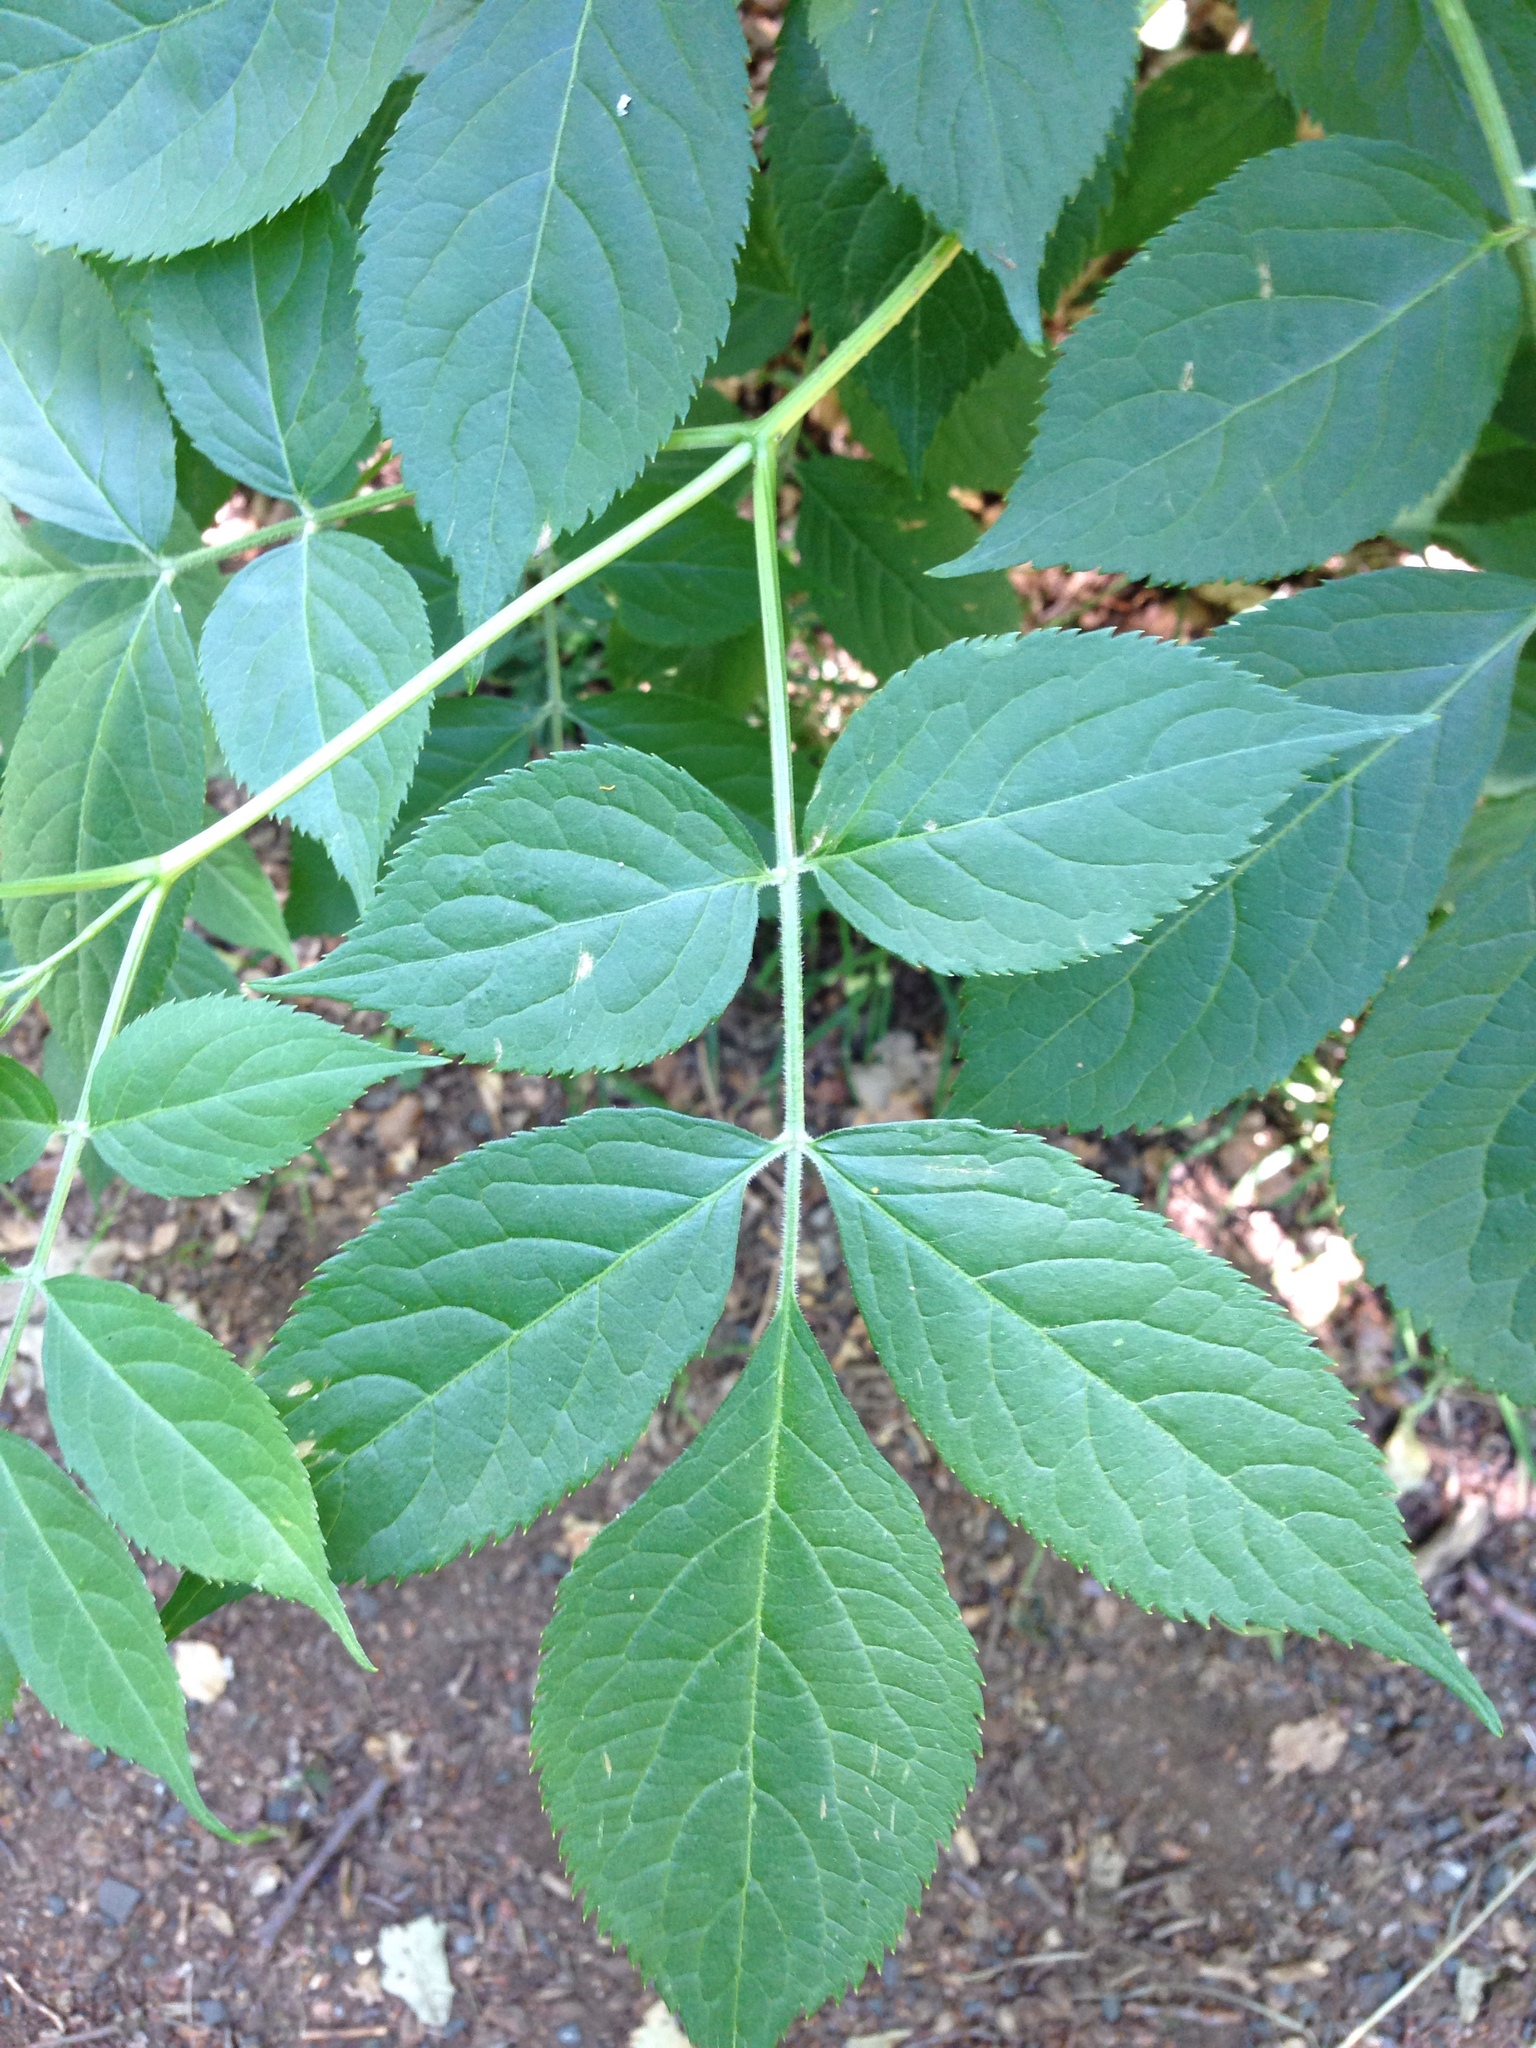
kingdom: Plantae
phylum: Tracheophyta
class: Magnoliopsida
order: Dipsacales
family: Viburnaceae
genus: Sambucus
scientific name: Sambucus nigra
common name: Elder
